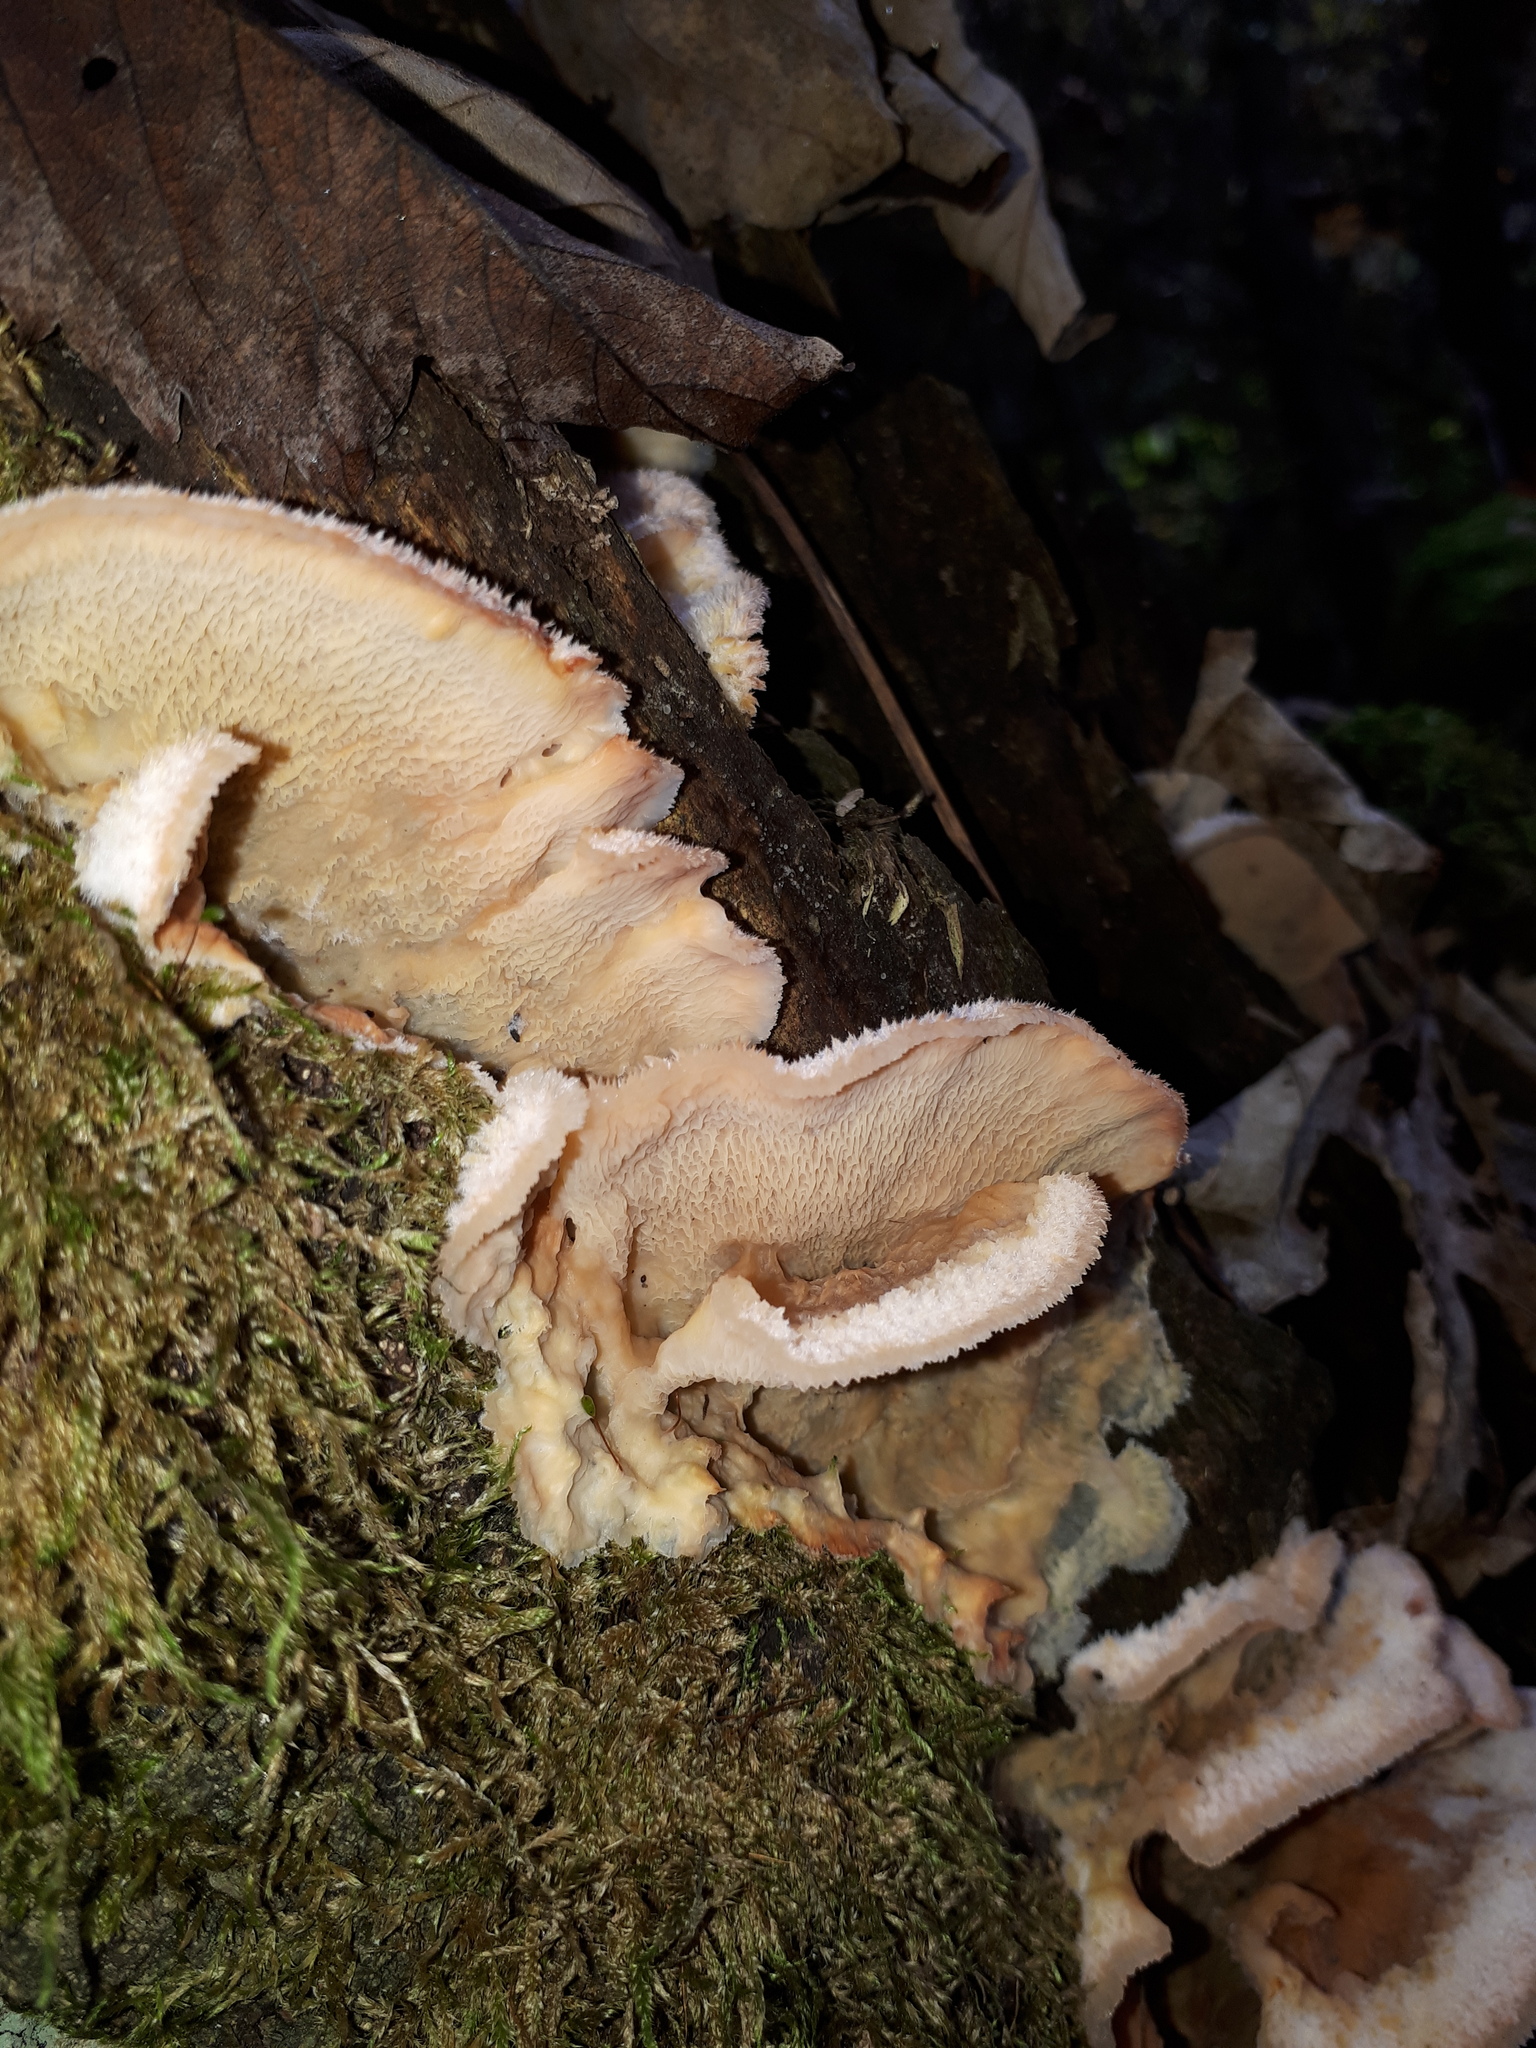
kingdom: Fungi
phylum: Basidiomycota
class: Agaricomycetes
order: Polyporales
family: Meruliaceae
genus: Phlebia
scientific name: Phlebia tremellosa
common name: Jelly rot
